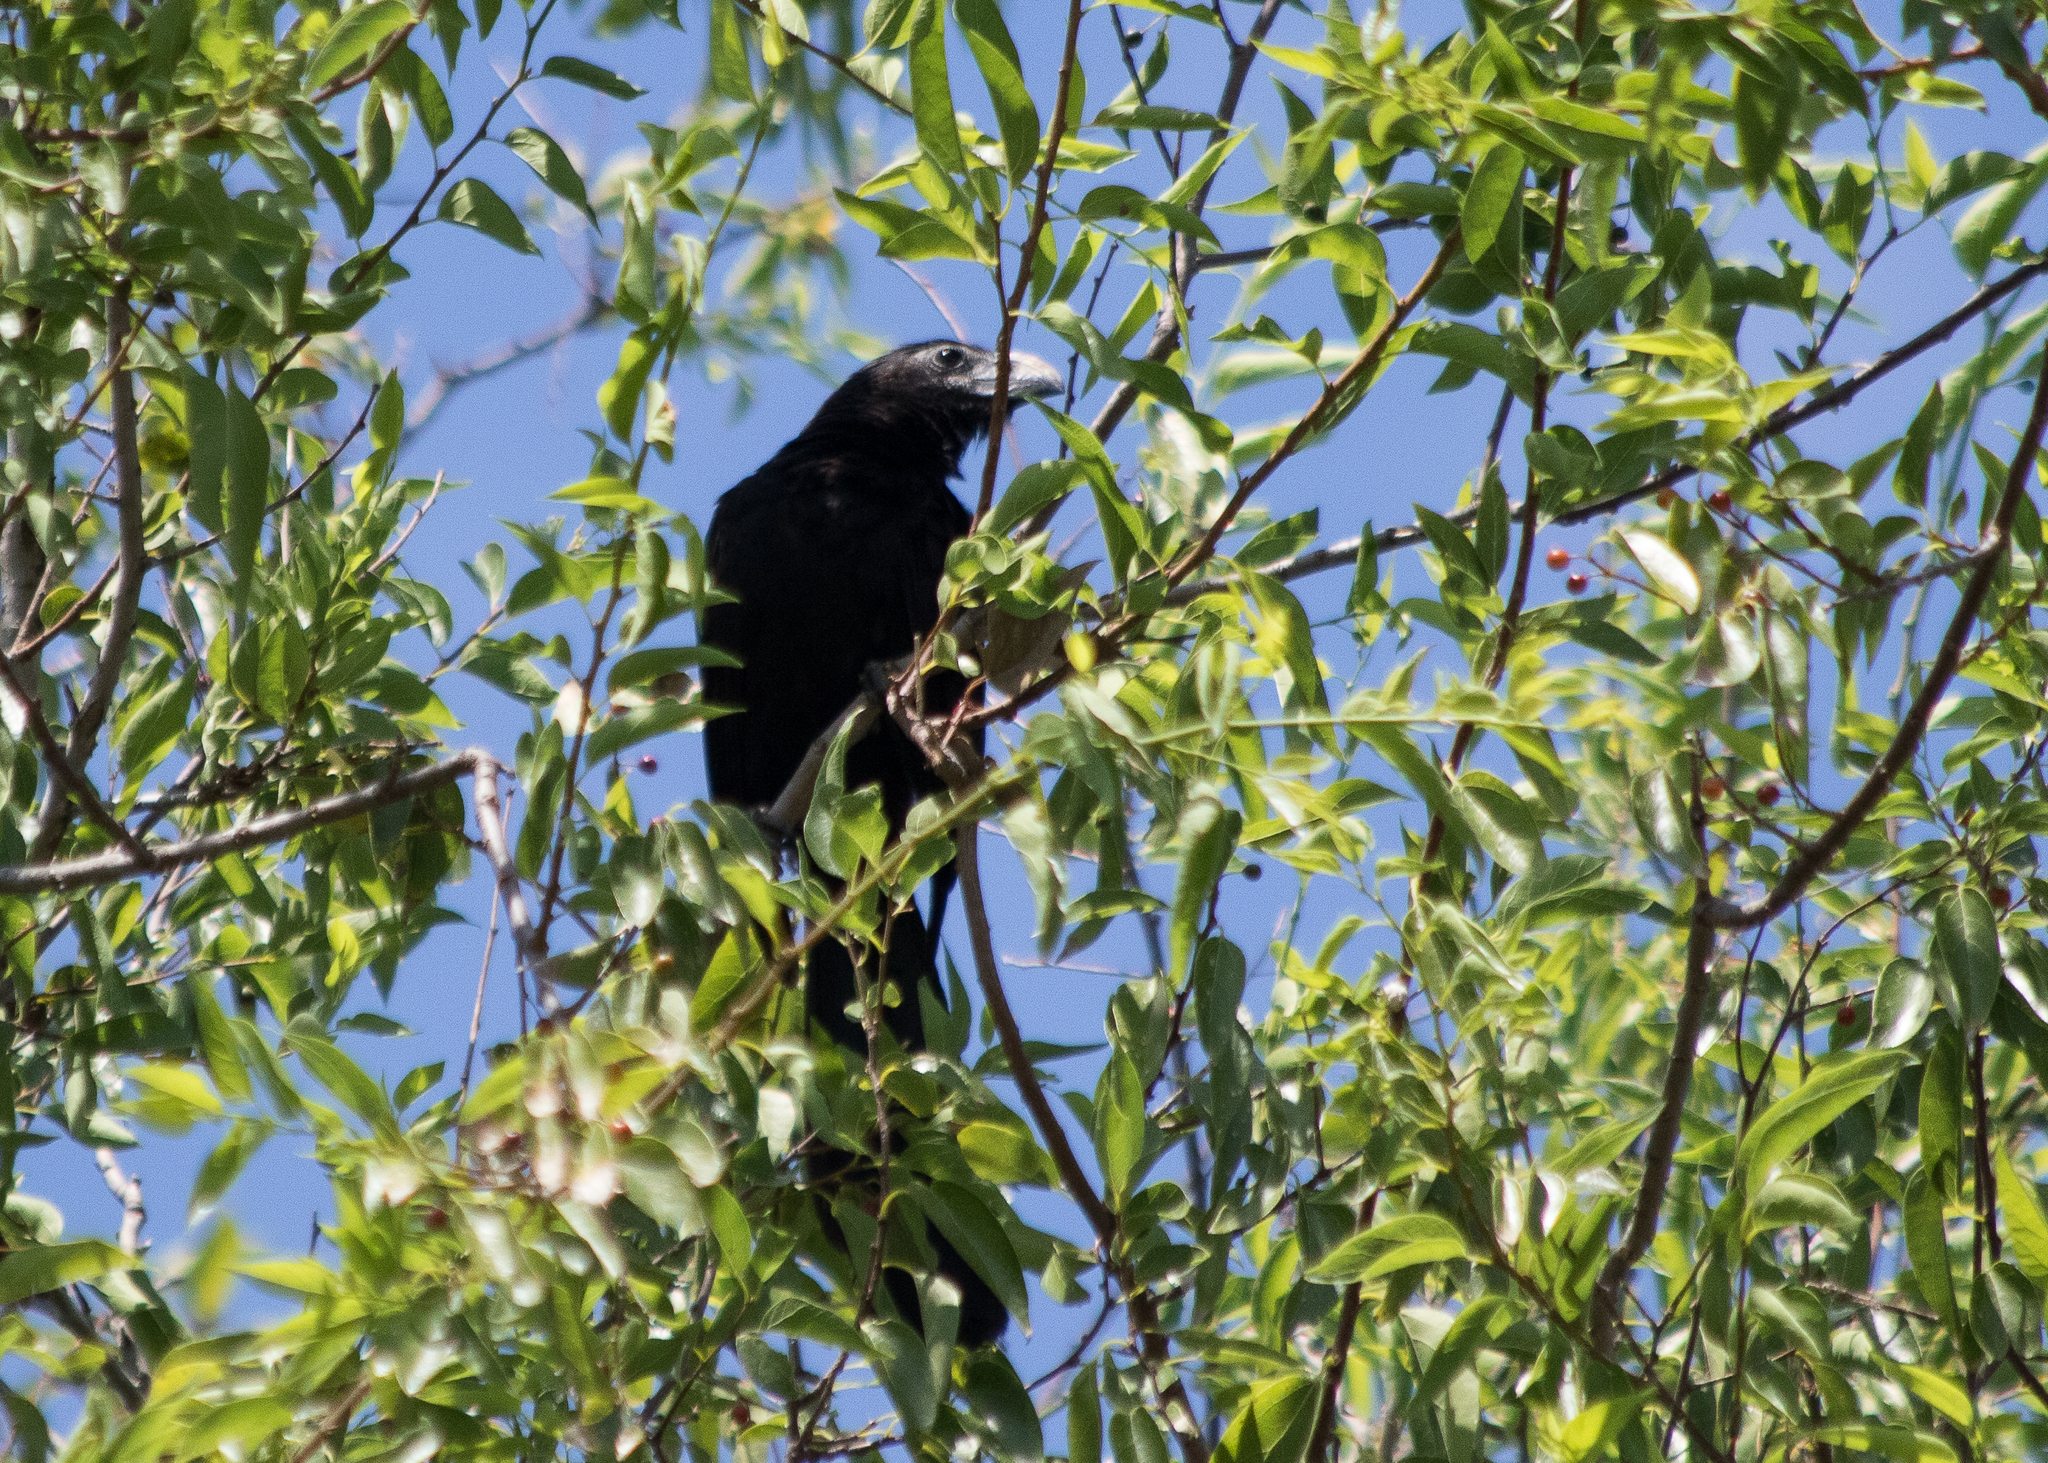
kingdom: Animalia
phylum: Chordata
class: Aves
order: Cuculiformes
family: Cuculidae
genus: Crotophaga
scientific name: Crotophaga sulcirostris
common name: Groove-billed ani
